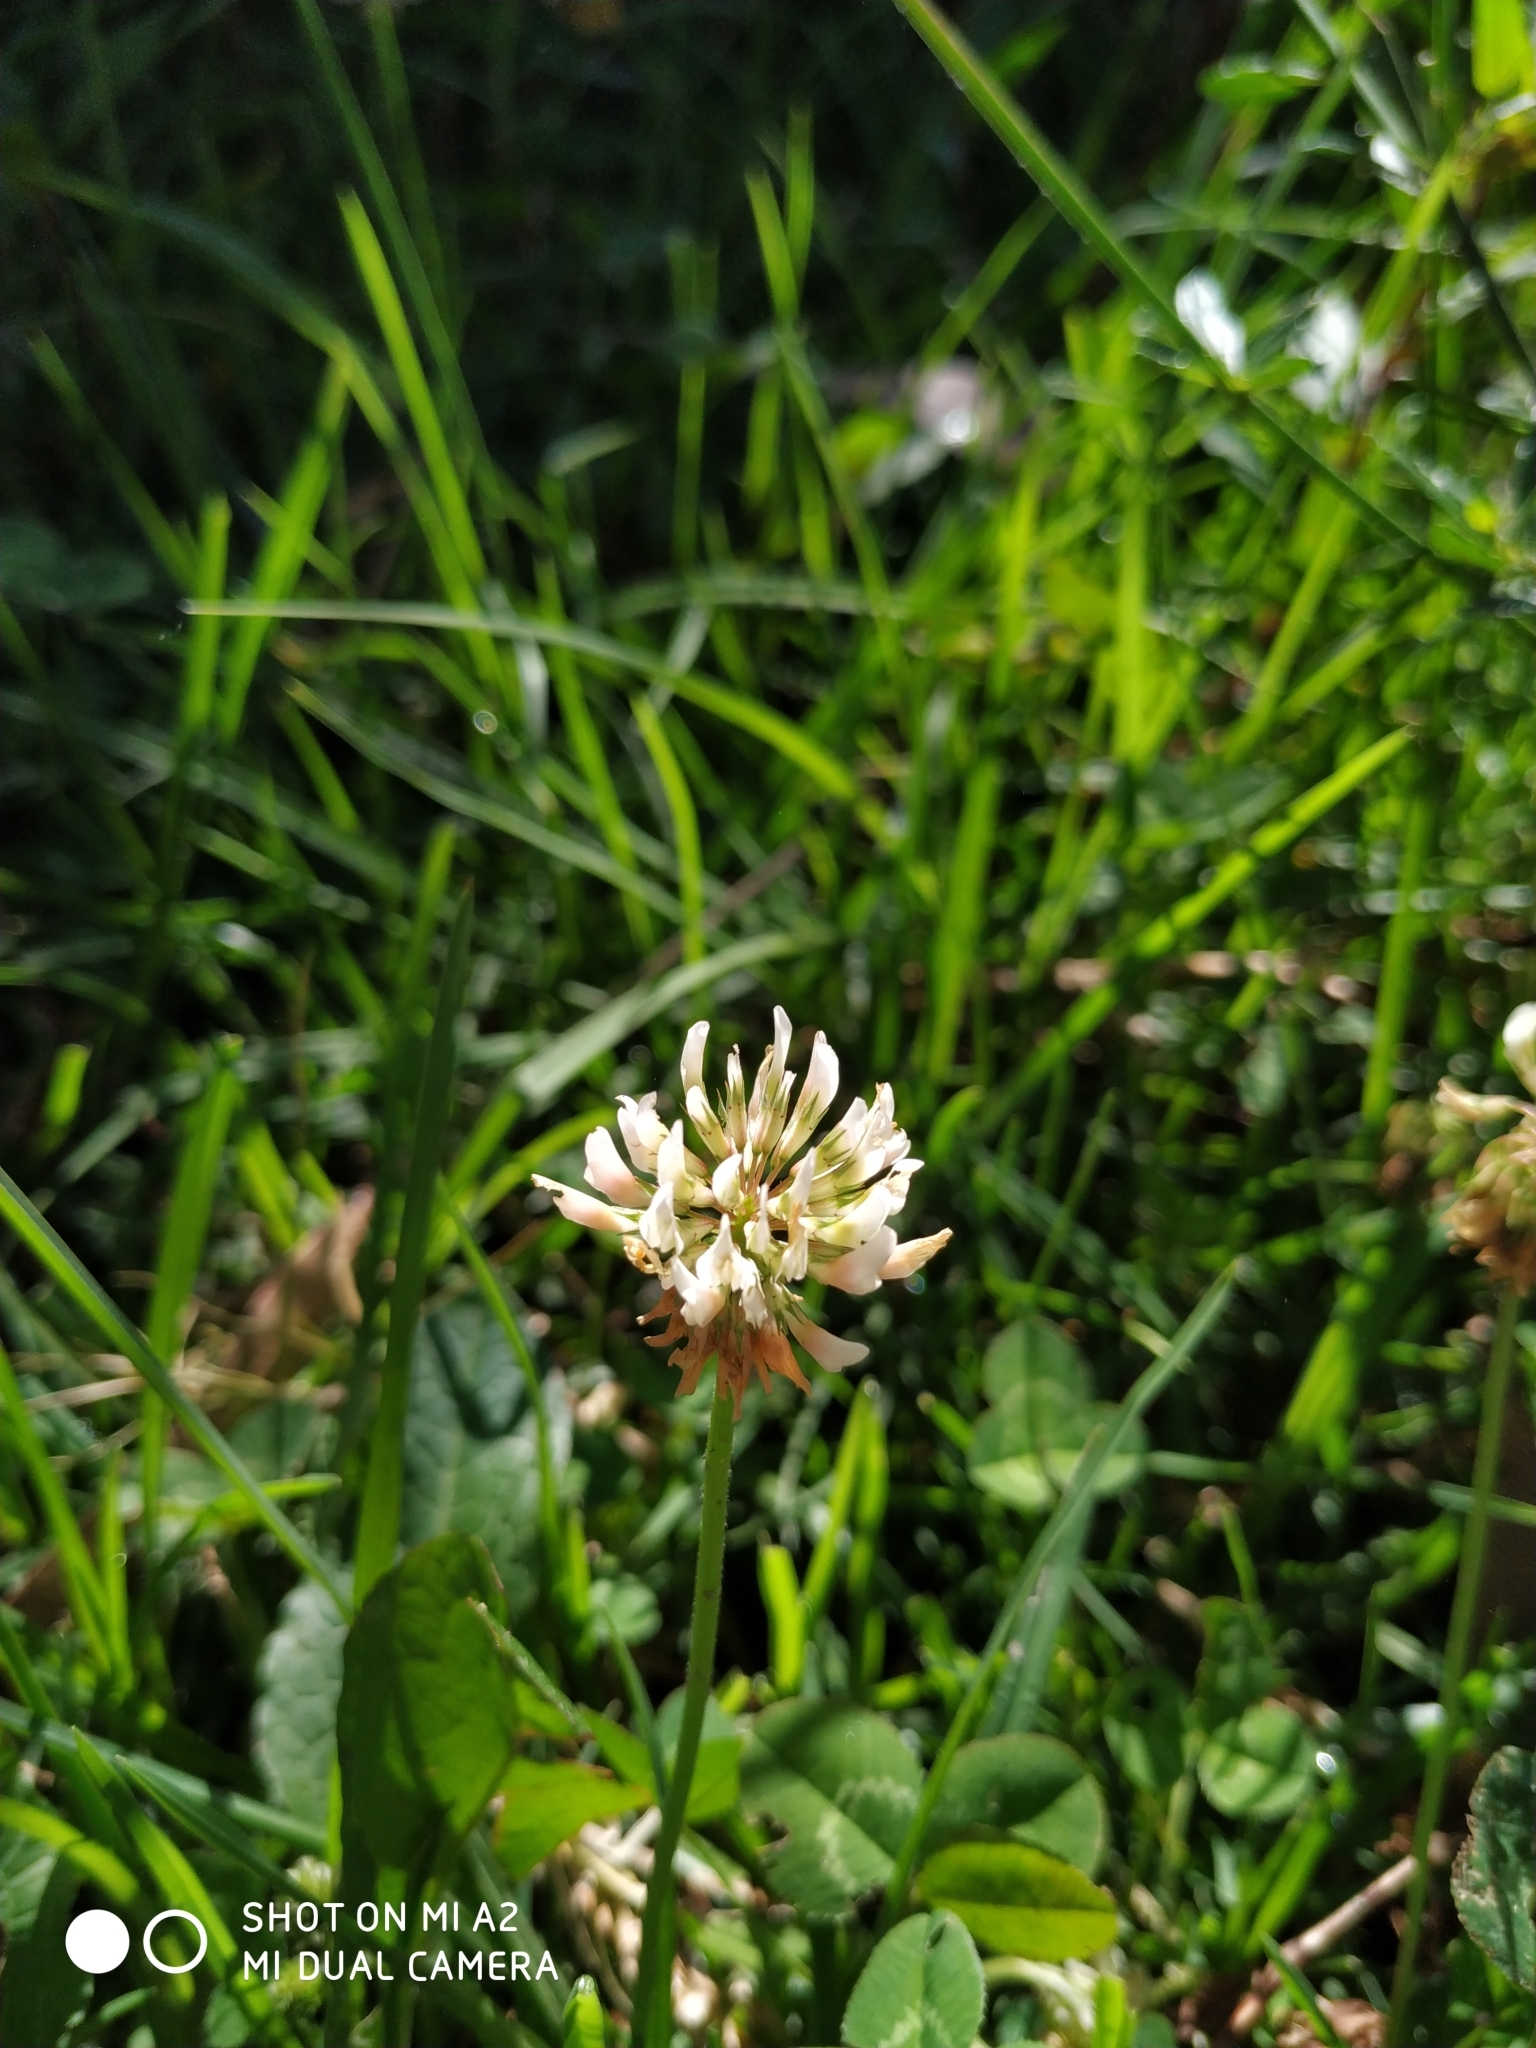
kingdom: Plantae
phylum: Tracheophyta
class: Magnoliopsida
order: Fabales
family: Fabaceae
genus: Trifolium
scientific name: Trifolium repens
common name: White clover
